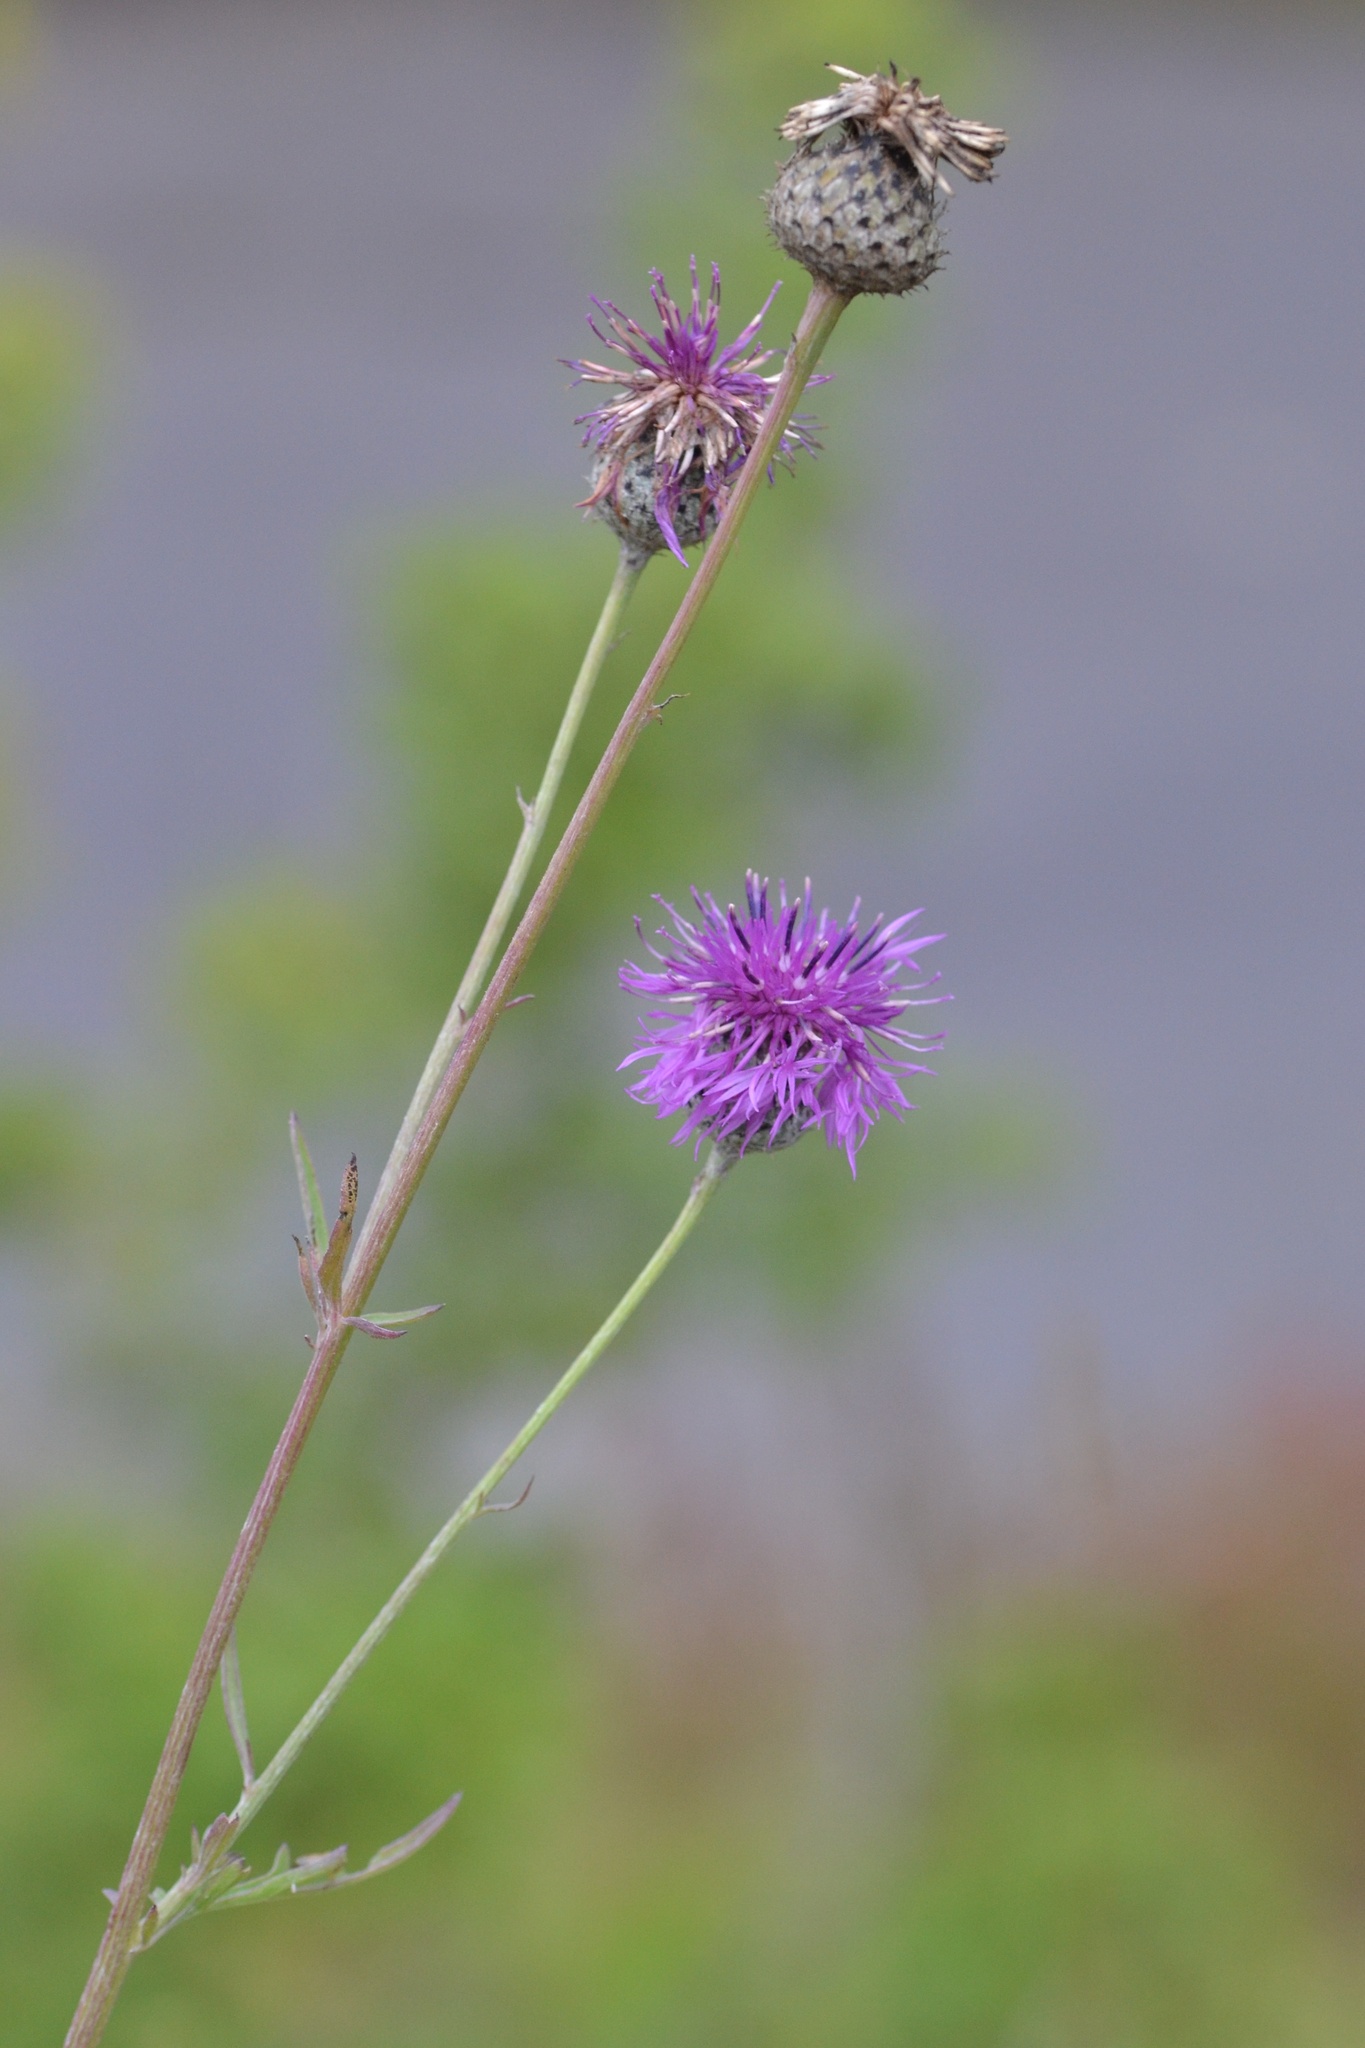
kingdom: Plantae
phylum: Tracheophyta
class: Magnoliopsida
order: Asterales
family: Asteraceae
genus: Centaurea
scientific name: Centaurea scabiosa
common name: Greater knapweed
